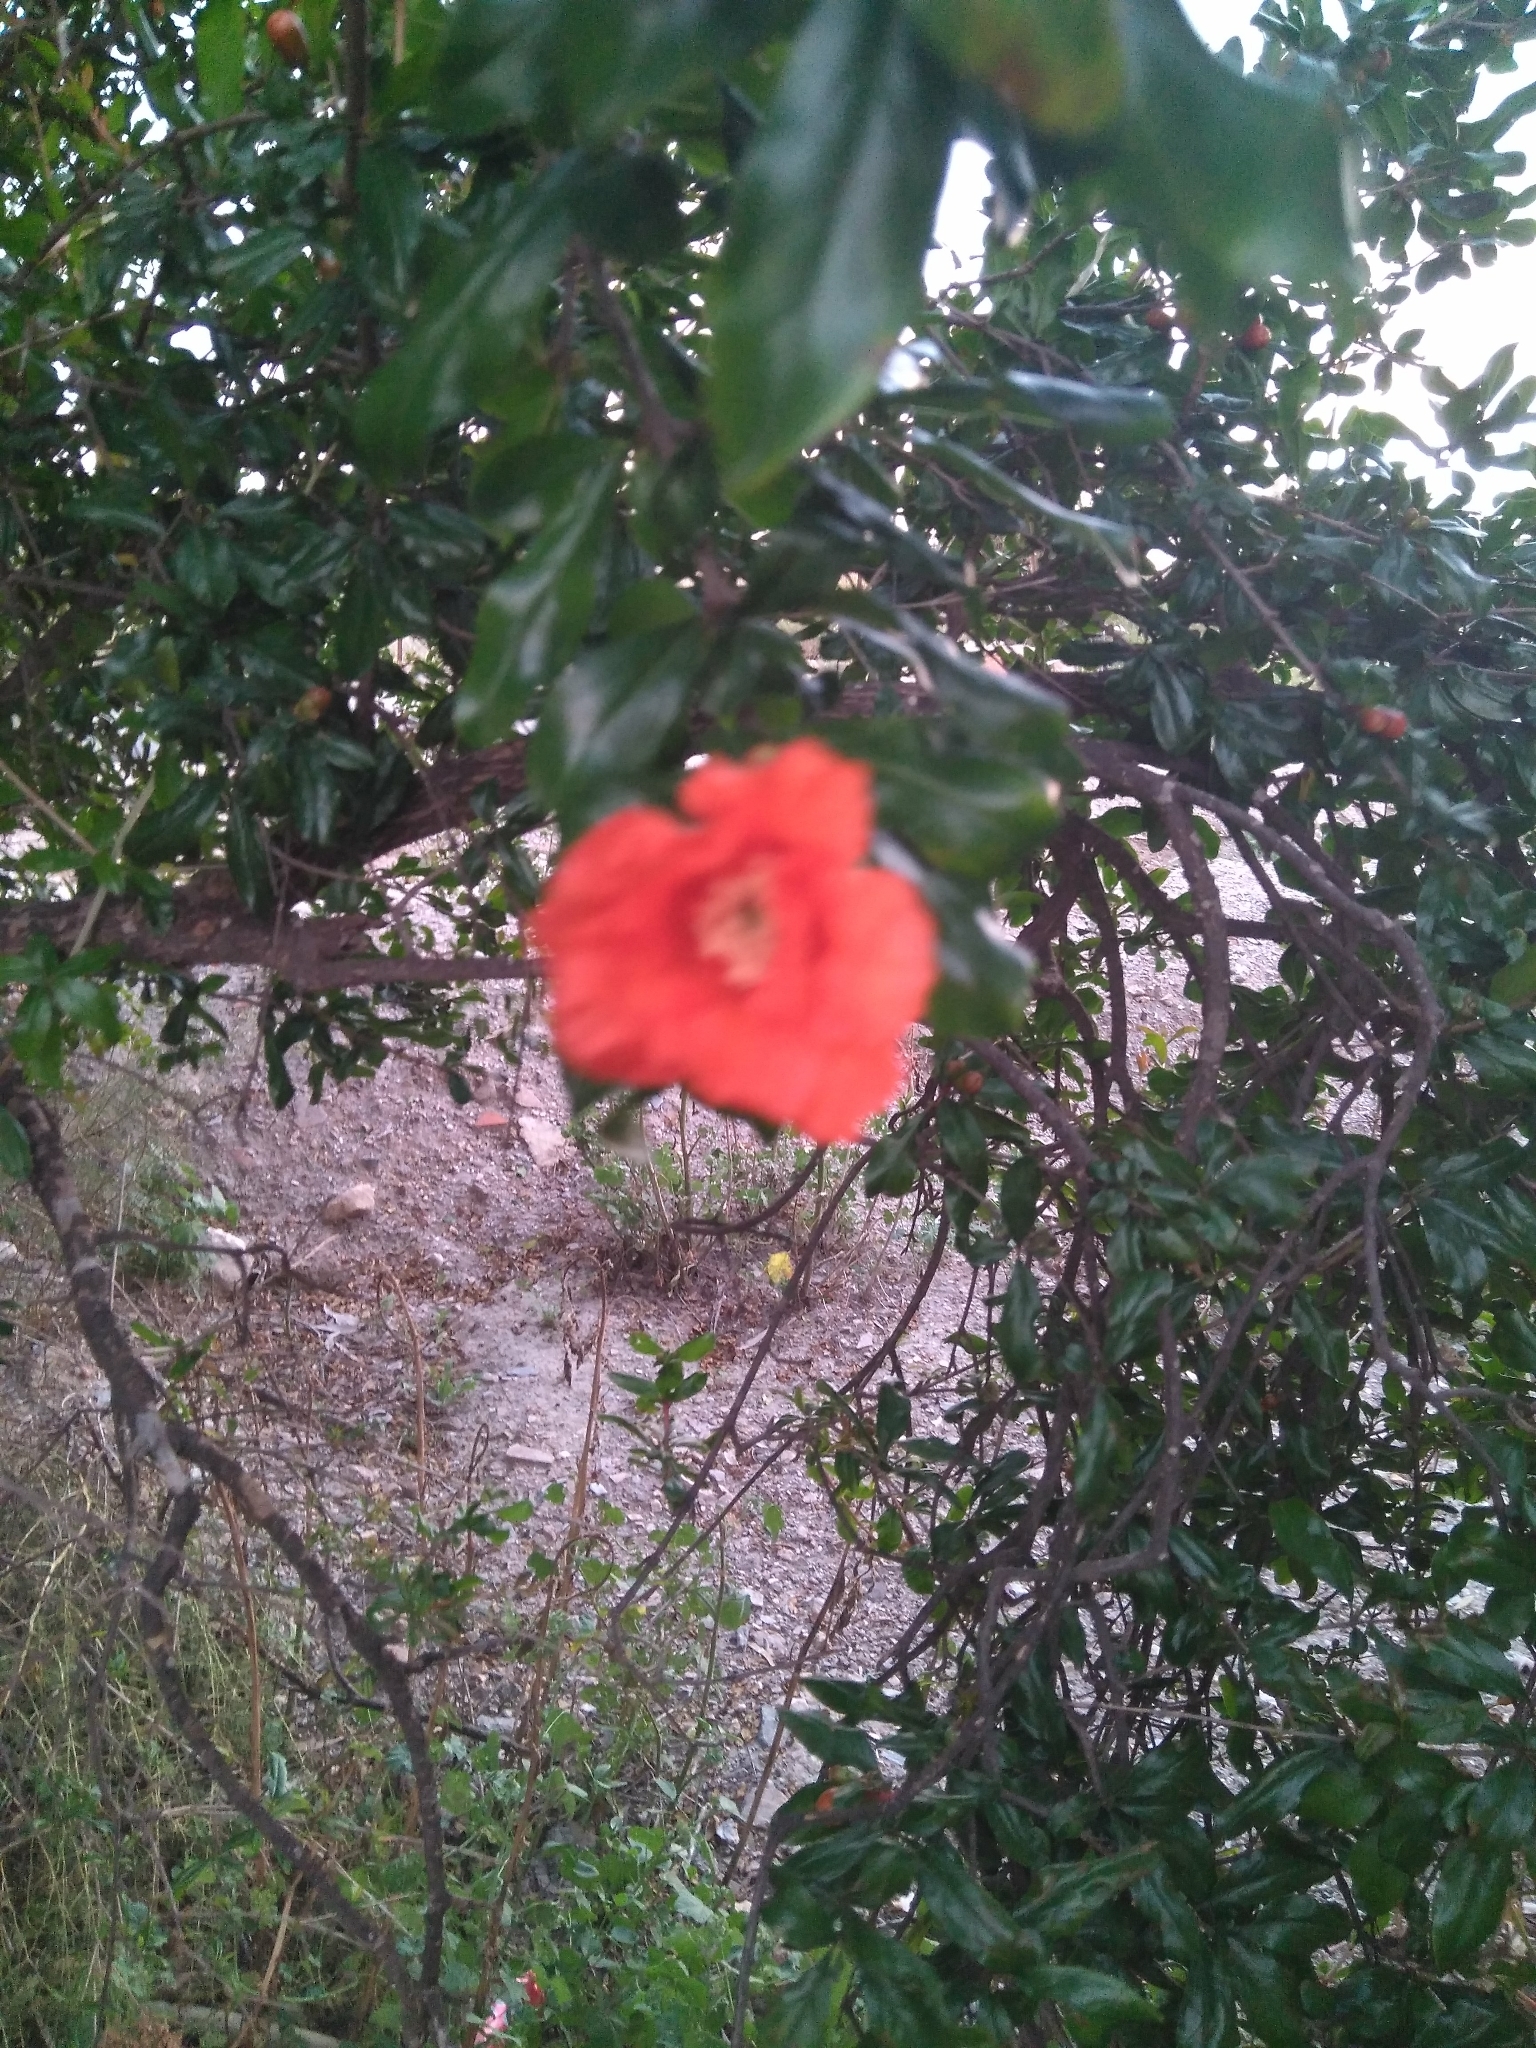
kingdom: Plantae
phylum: Tracheophyta
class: Magnoliopsida
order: Myrtales
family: Lythraceae
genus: Punica
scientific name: Punica granatum
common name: Pomegranate
